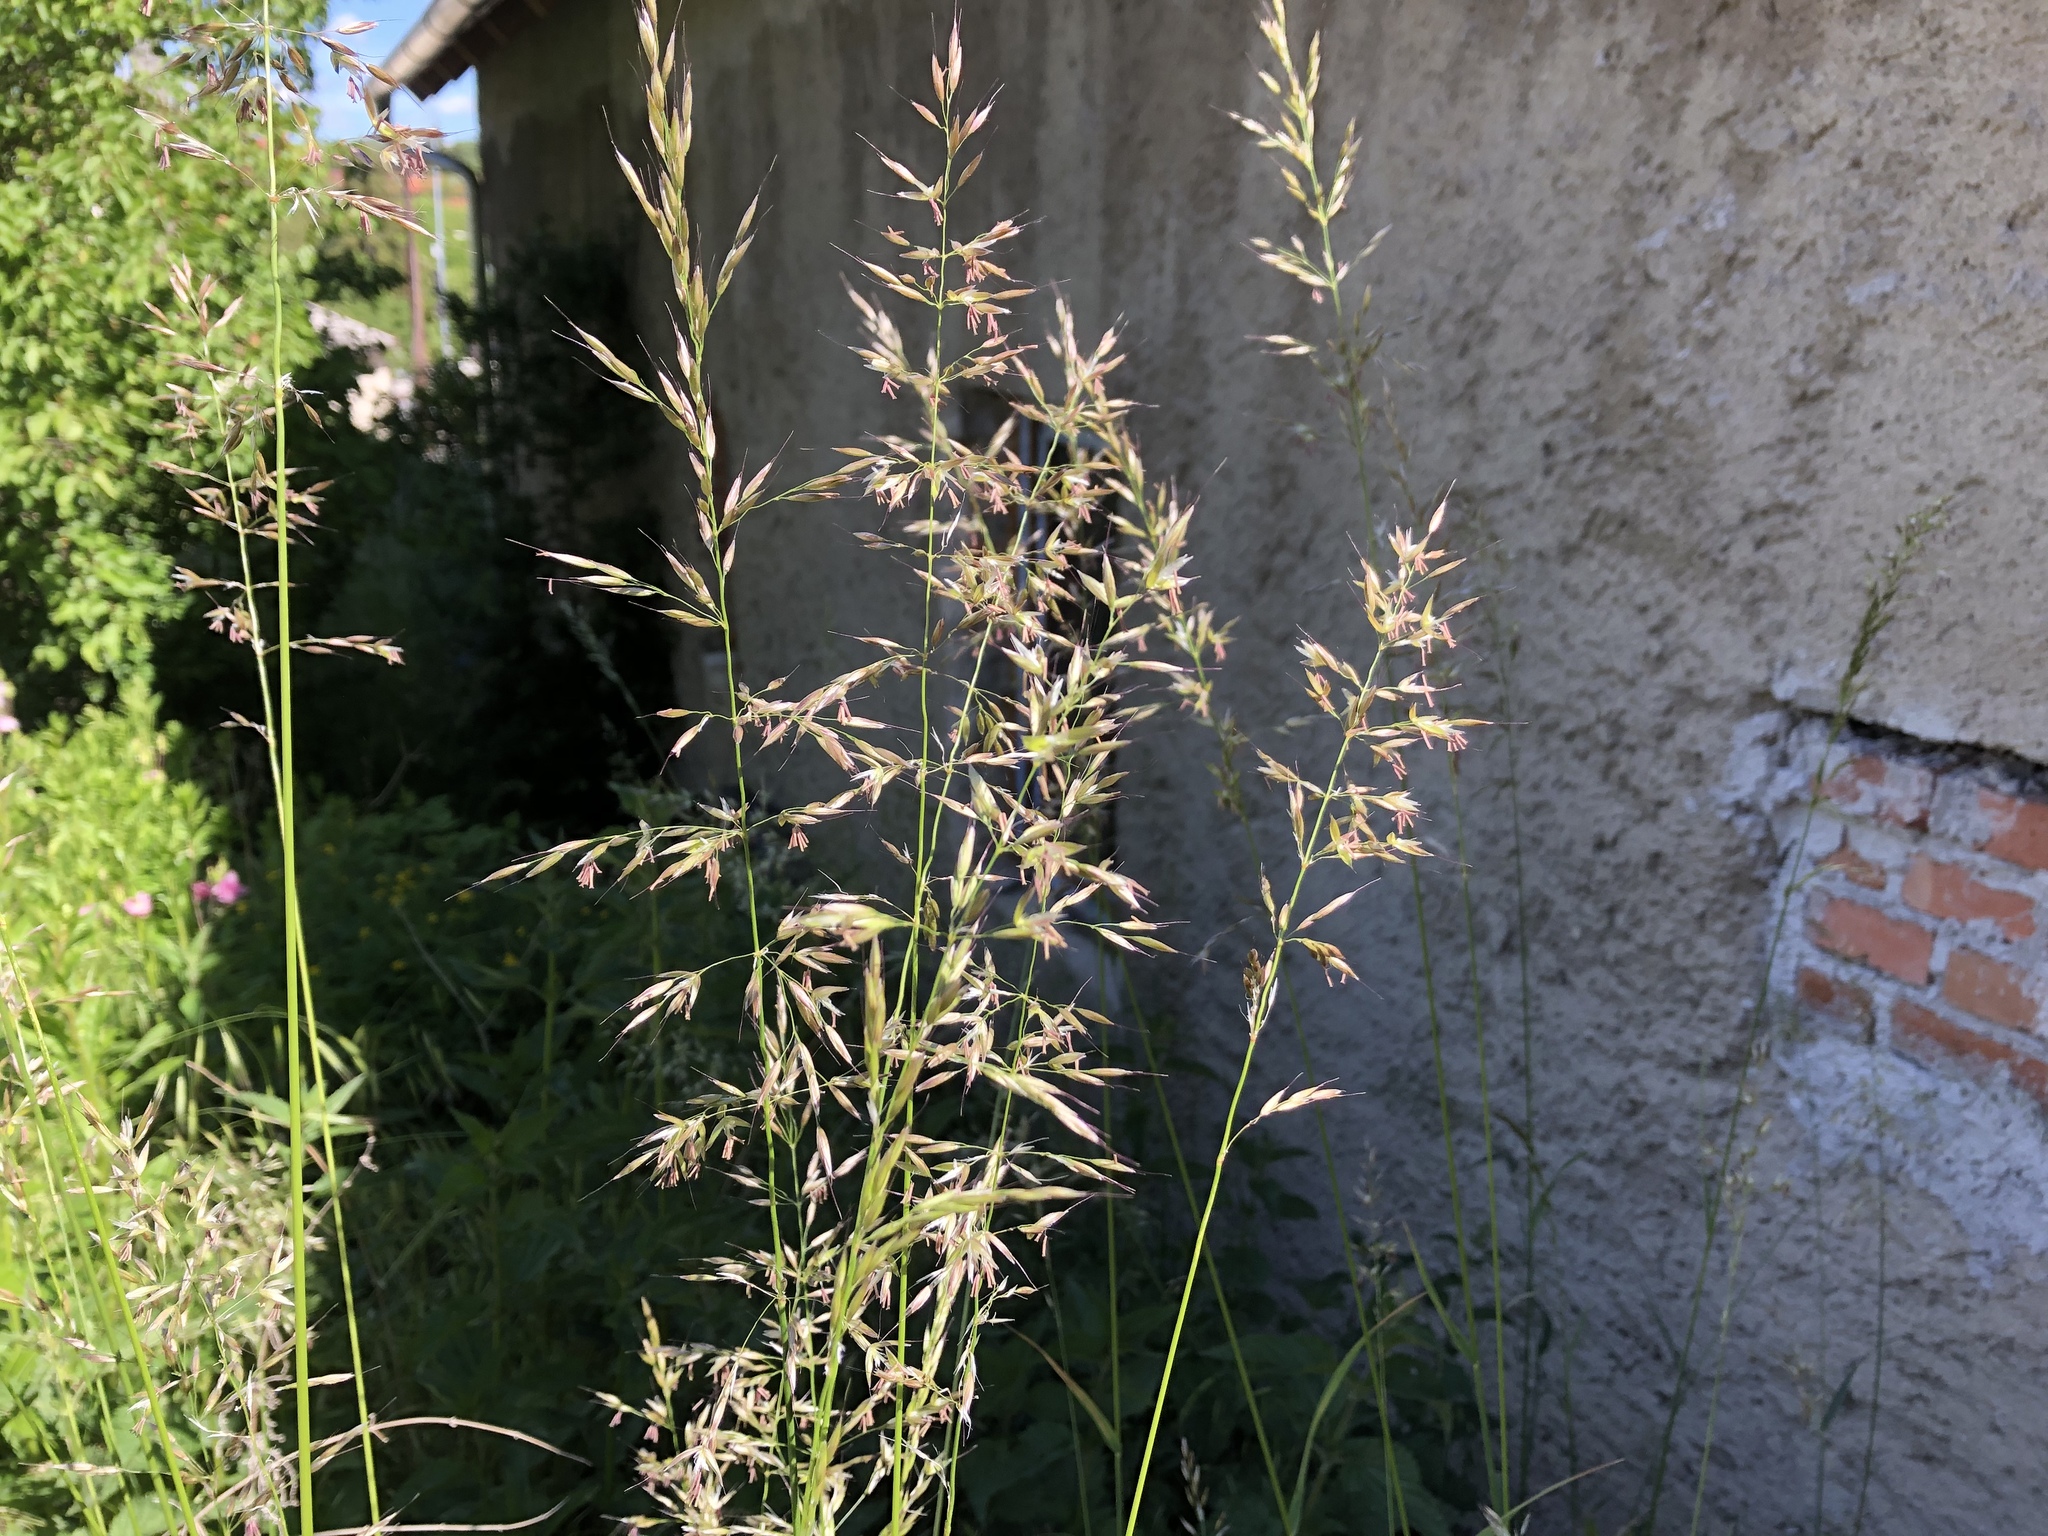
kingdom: Plantae
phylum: Tracheophyta
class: Liliopsida
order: Poales
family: Poaceae
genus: Arrhenatherum
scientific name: Arrhenatherum elatius
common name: Tall oatgrass
